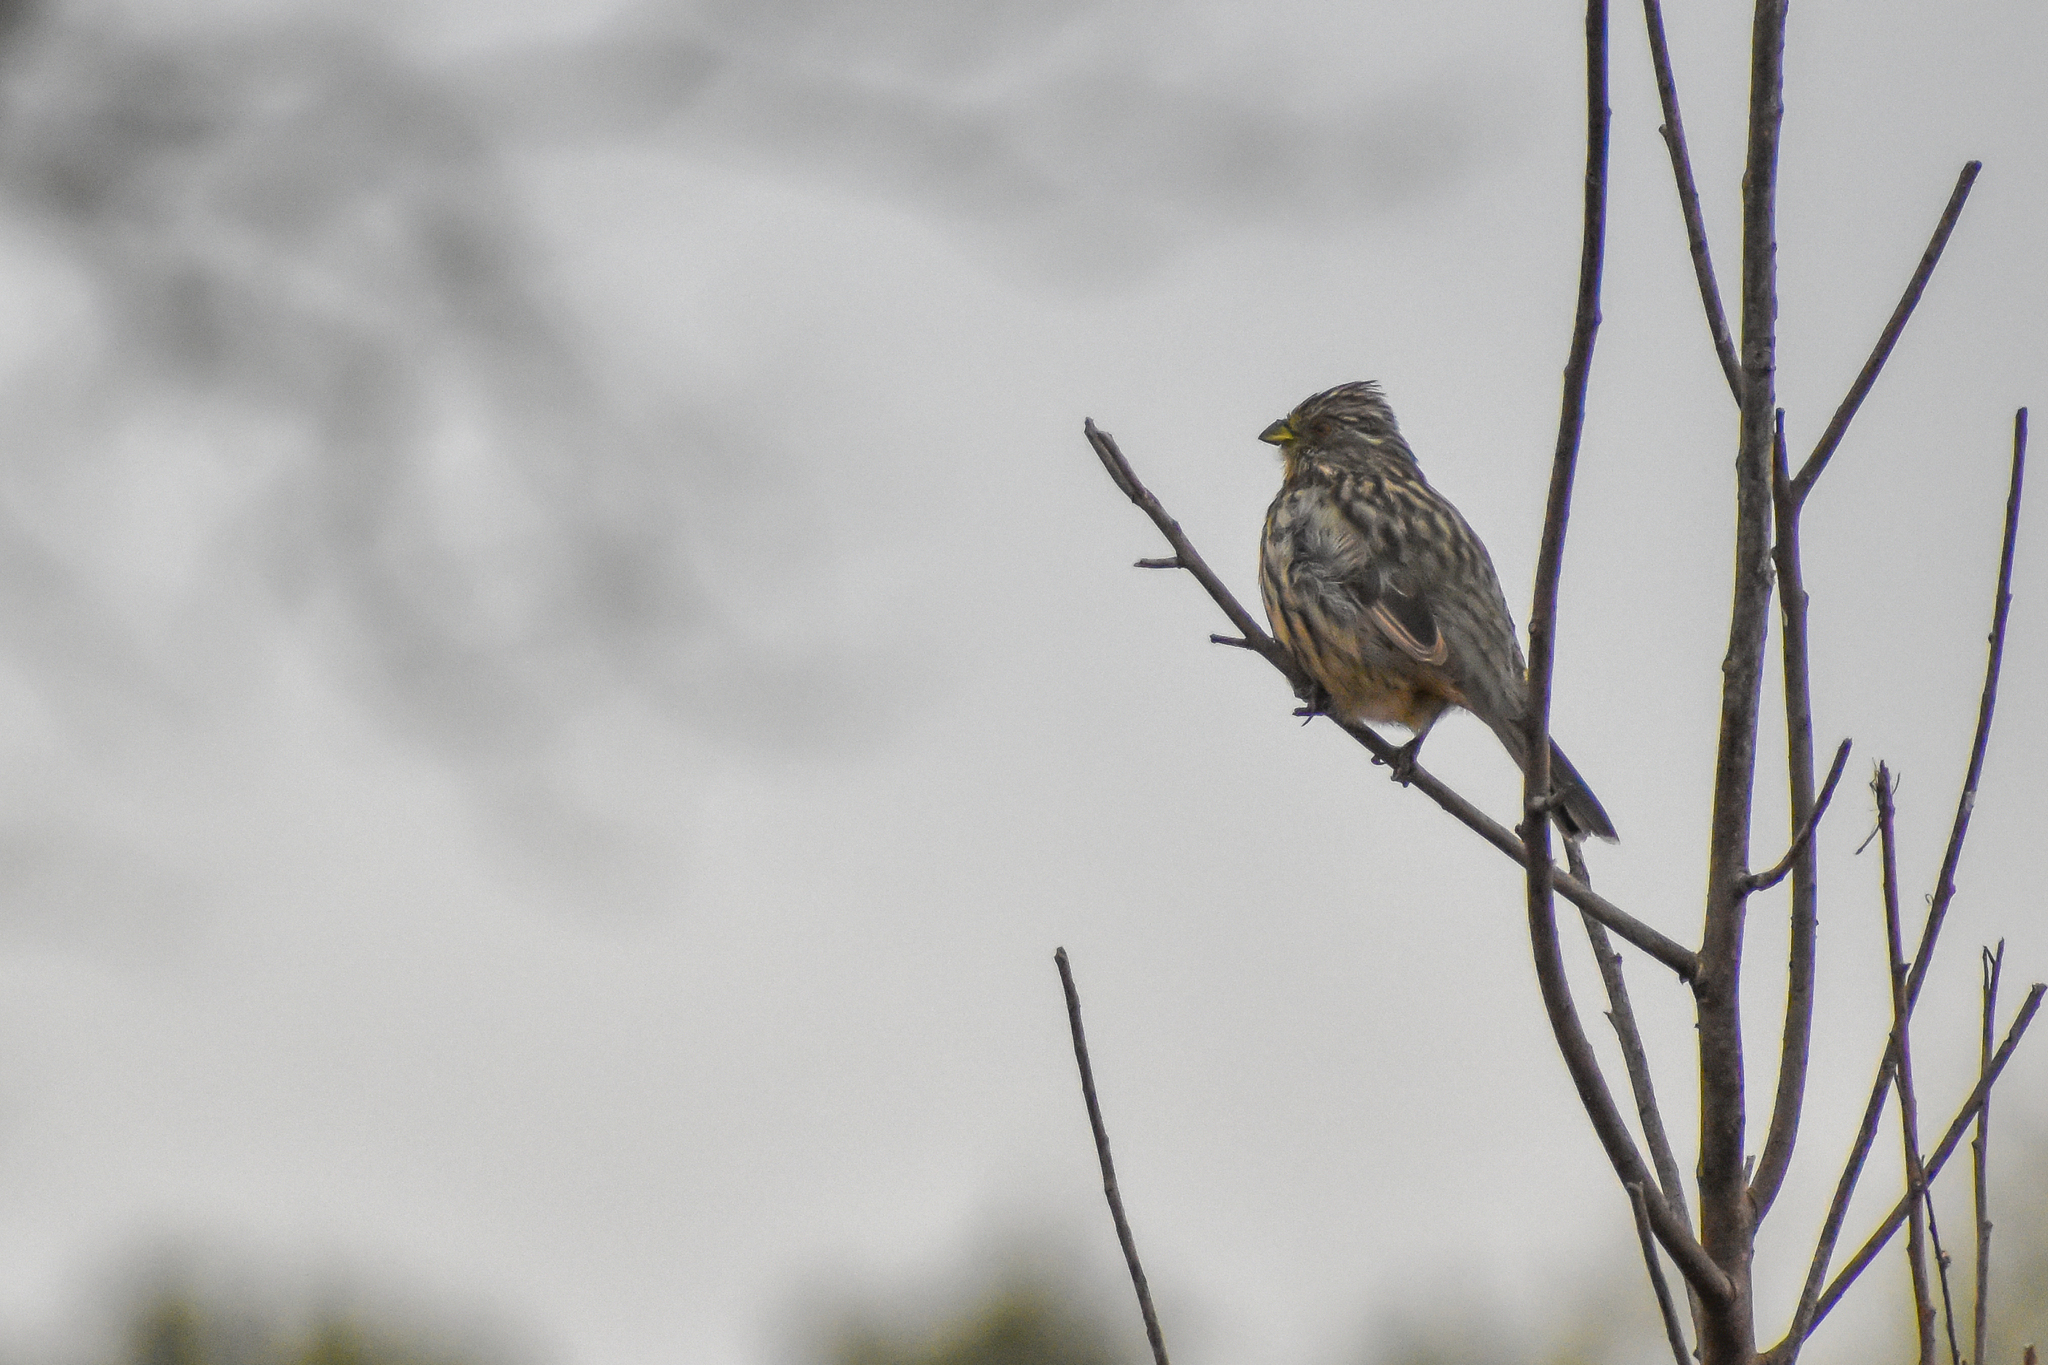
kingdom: Animalia
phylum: Chordata
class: Aves
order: Passeriformes
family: Cotingidae
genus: Phytotoma
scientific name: Phytotoma rutila
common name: White-tipped plantcutter
